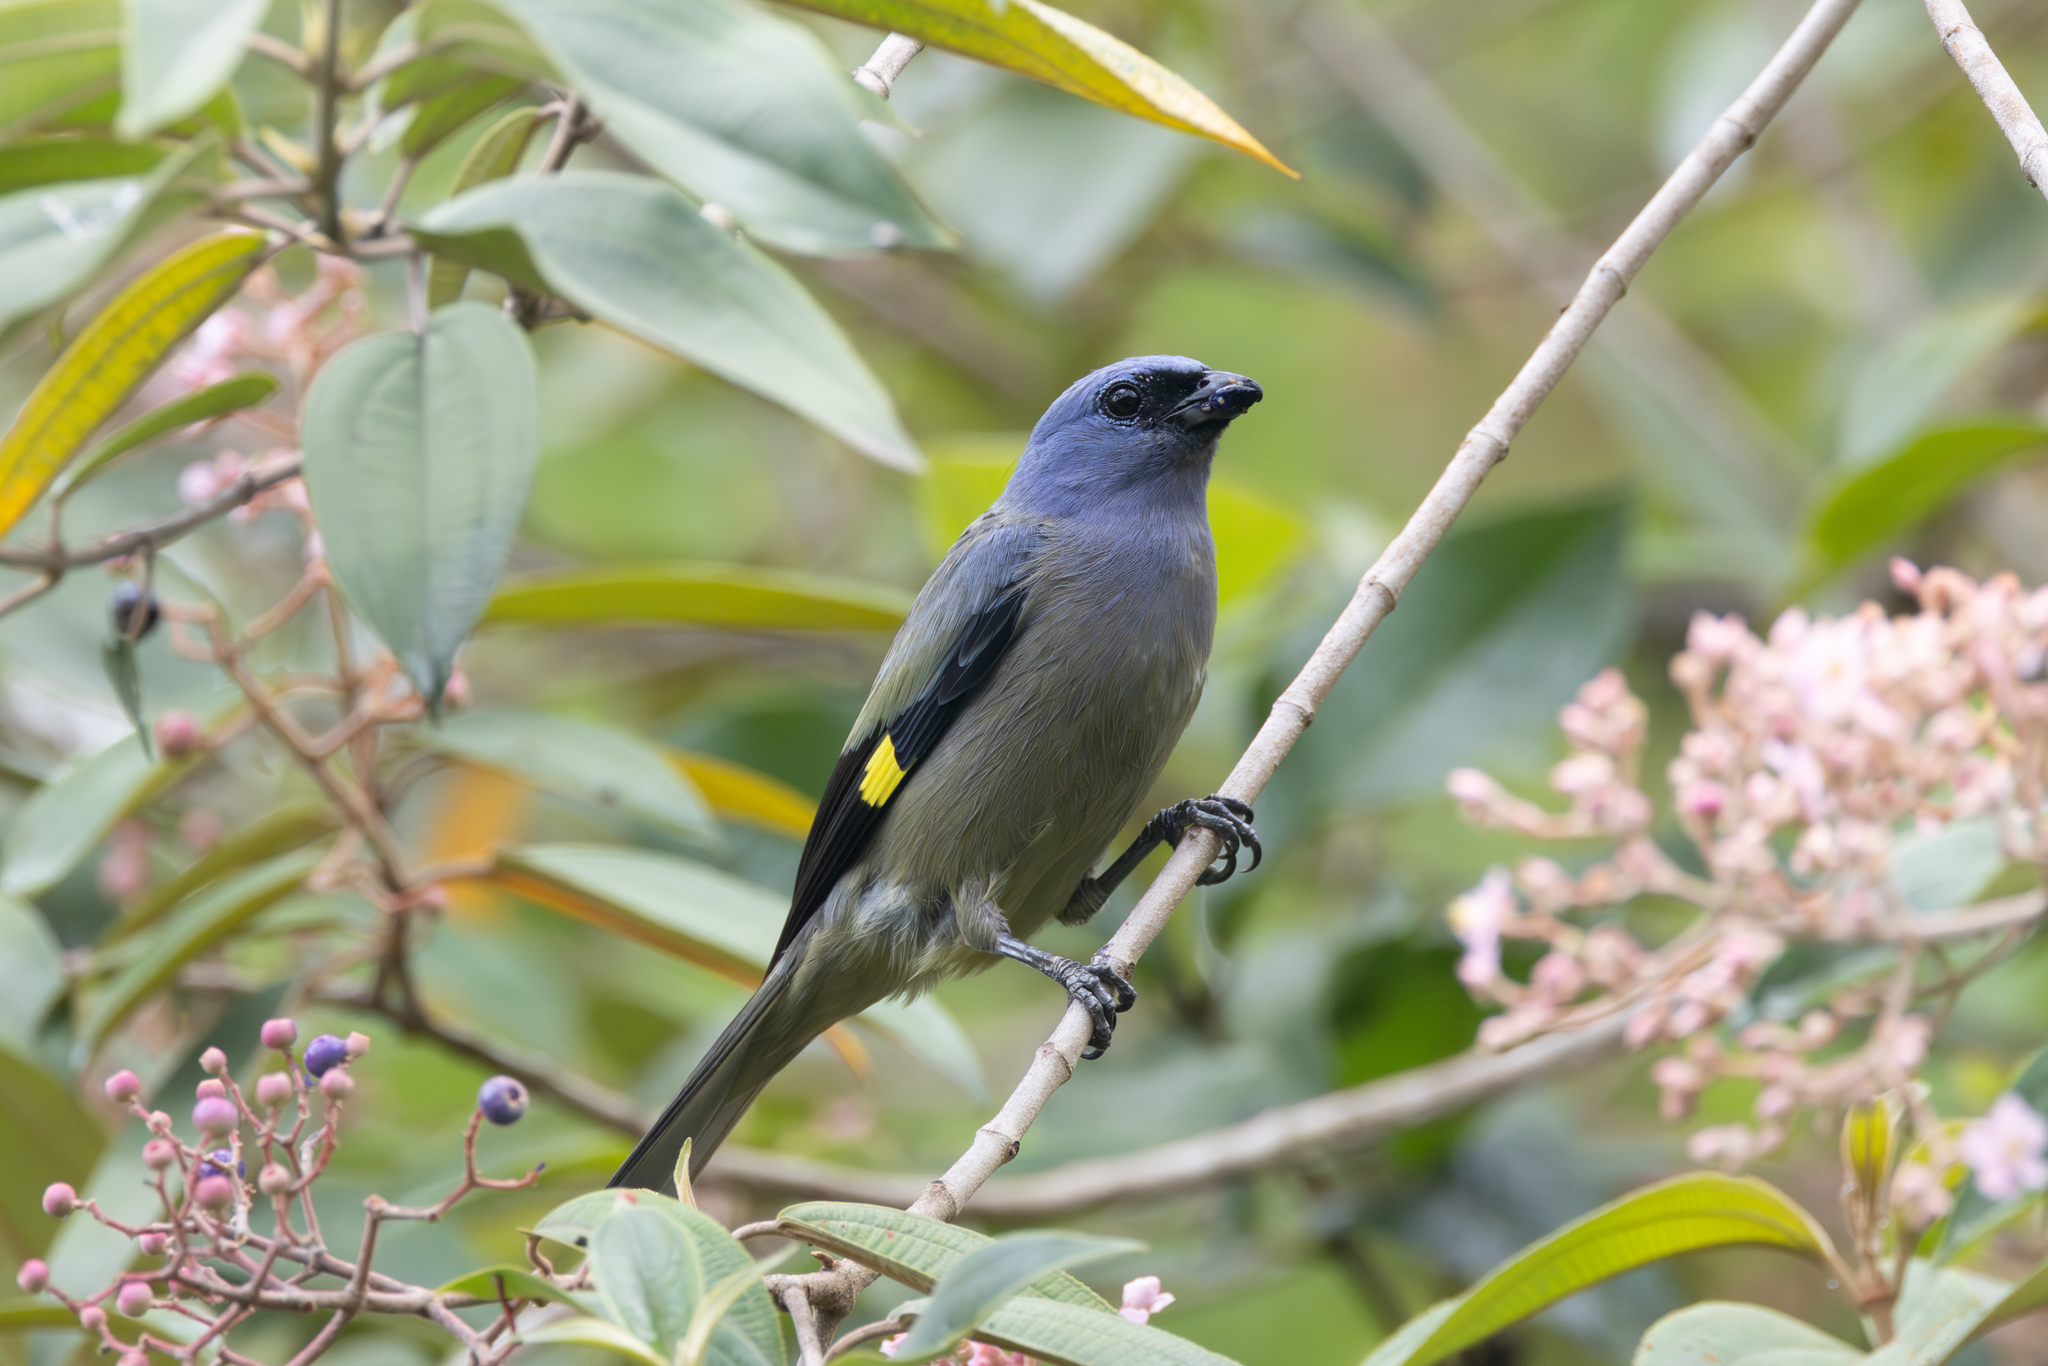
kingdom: Animalia
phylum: Chordata
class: Aves
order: Passeriformes
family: Thraupidae
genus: Thraupis
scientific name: Thraupis abbas
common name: Yellow-winged tanager
